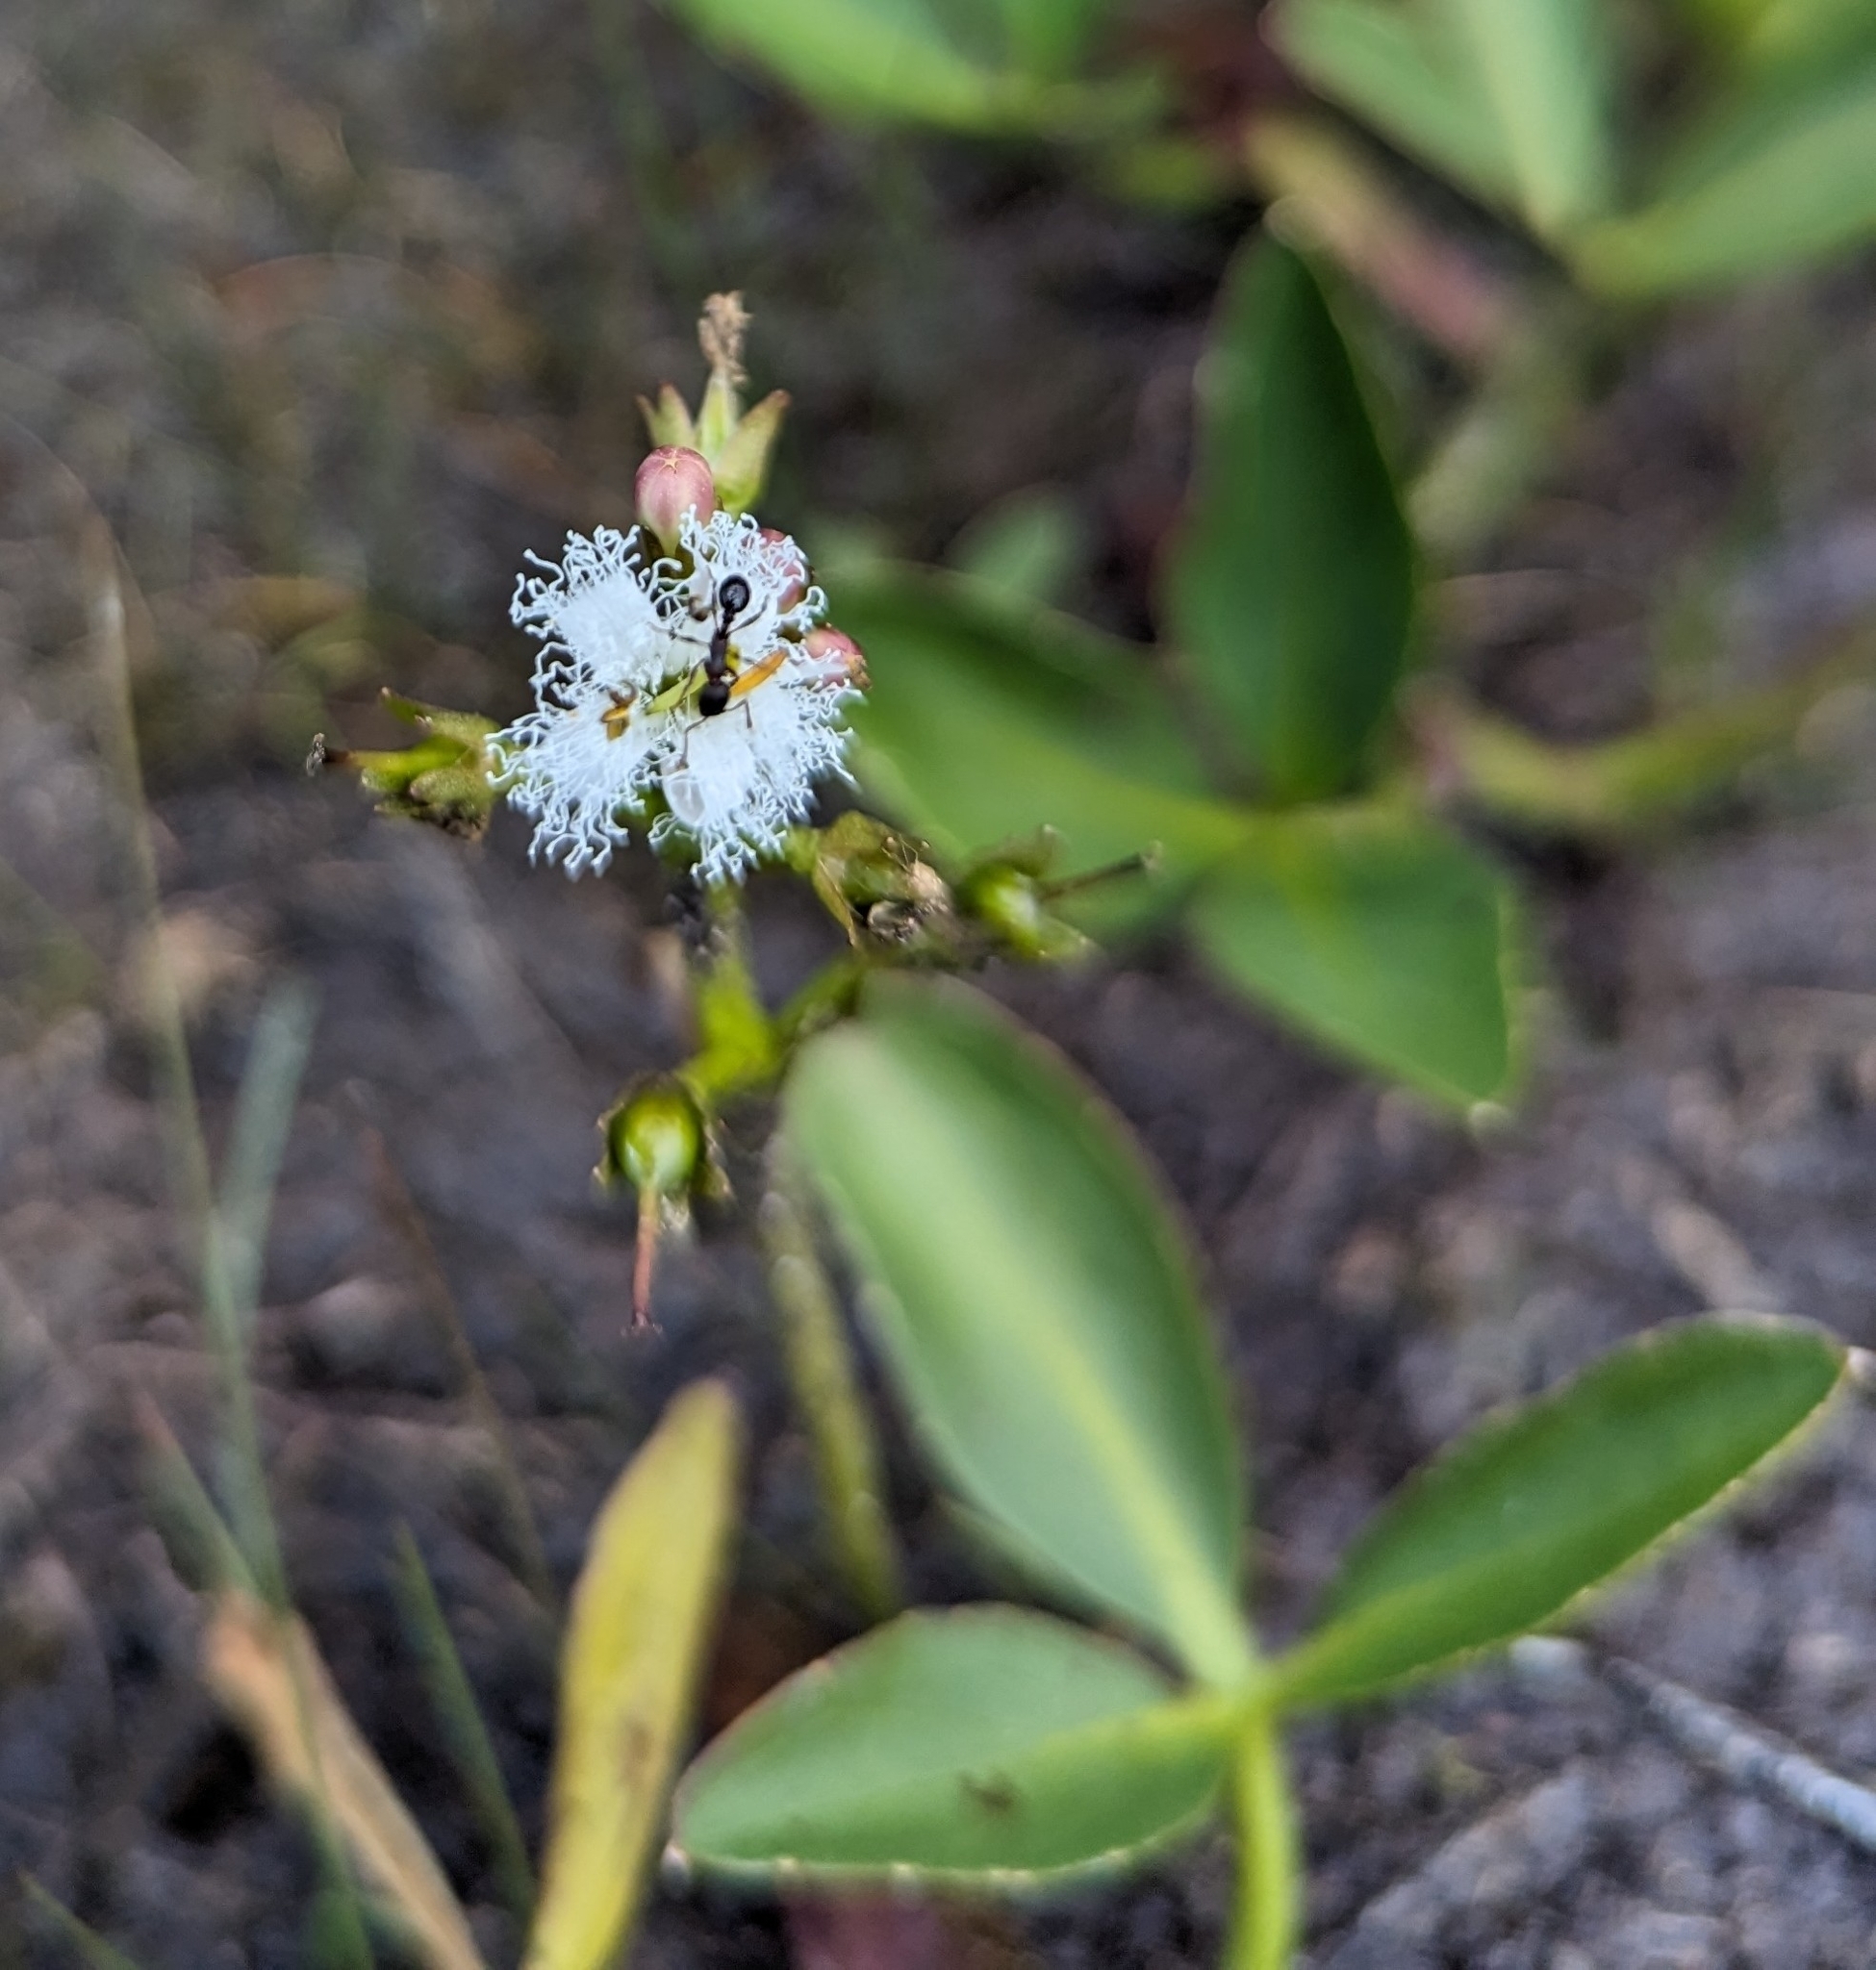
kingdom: Plantae
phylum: Tracheophyta
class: Magnoliopsida
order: Asterales
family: Menyanthaceae
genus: Menyanthes
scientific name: Menyanthes trifoliata
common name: Bogbean
